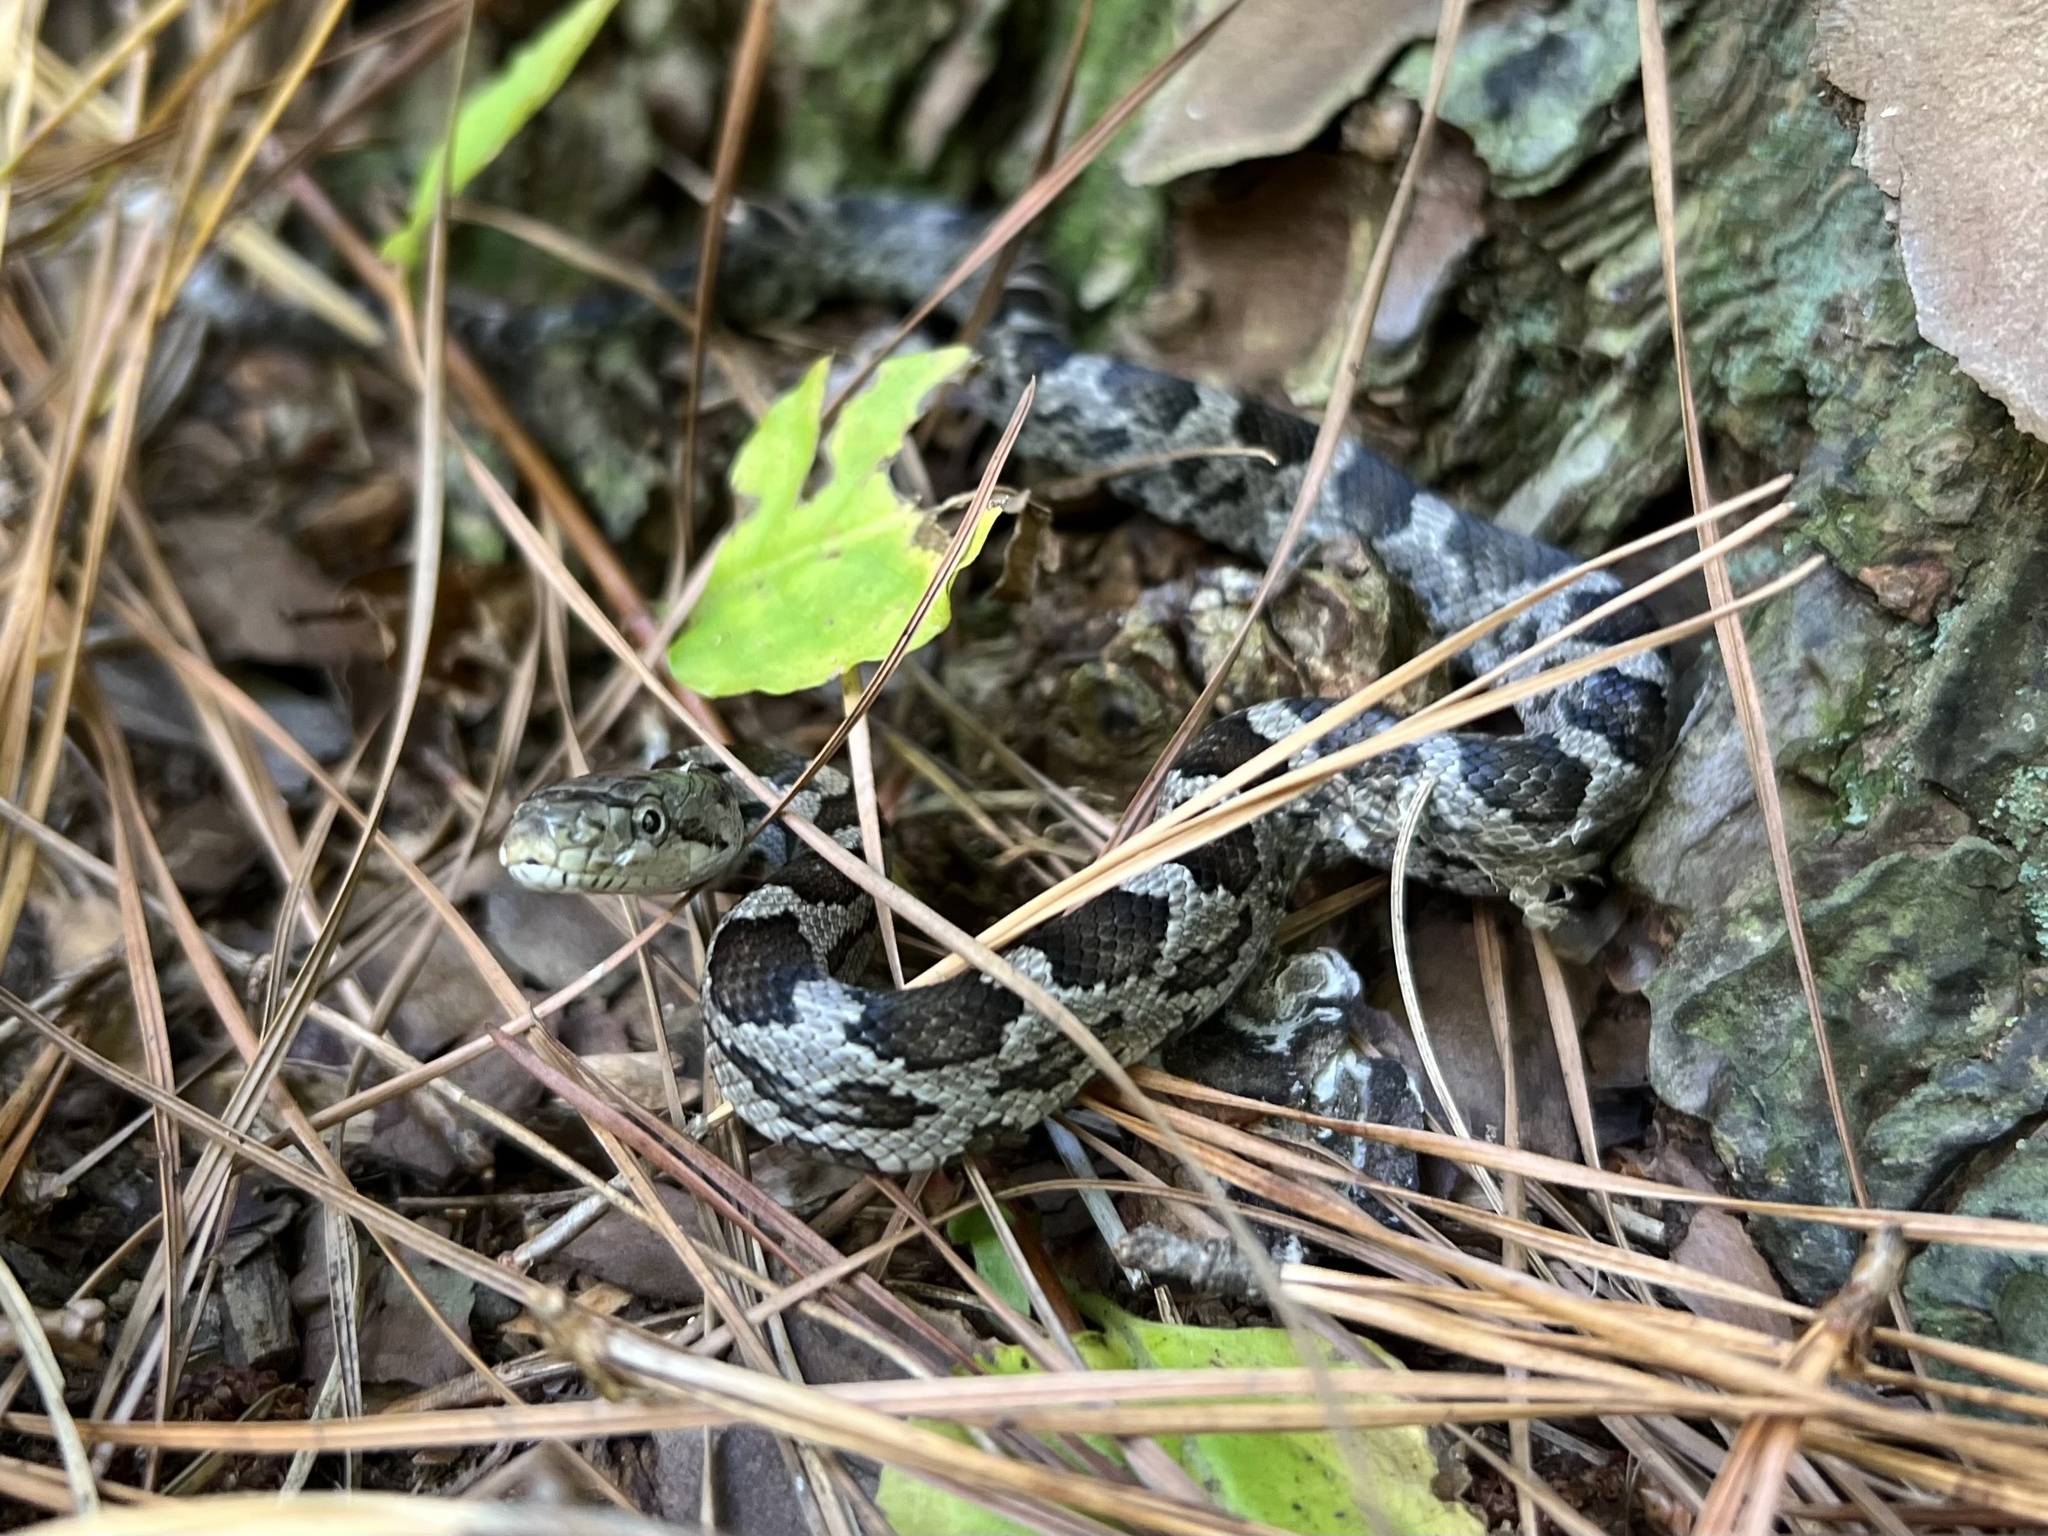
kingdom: Animalia
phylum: Chordata
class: Squamata
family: Colubridae
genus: Pantherophis
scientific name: Pantherophis
